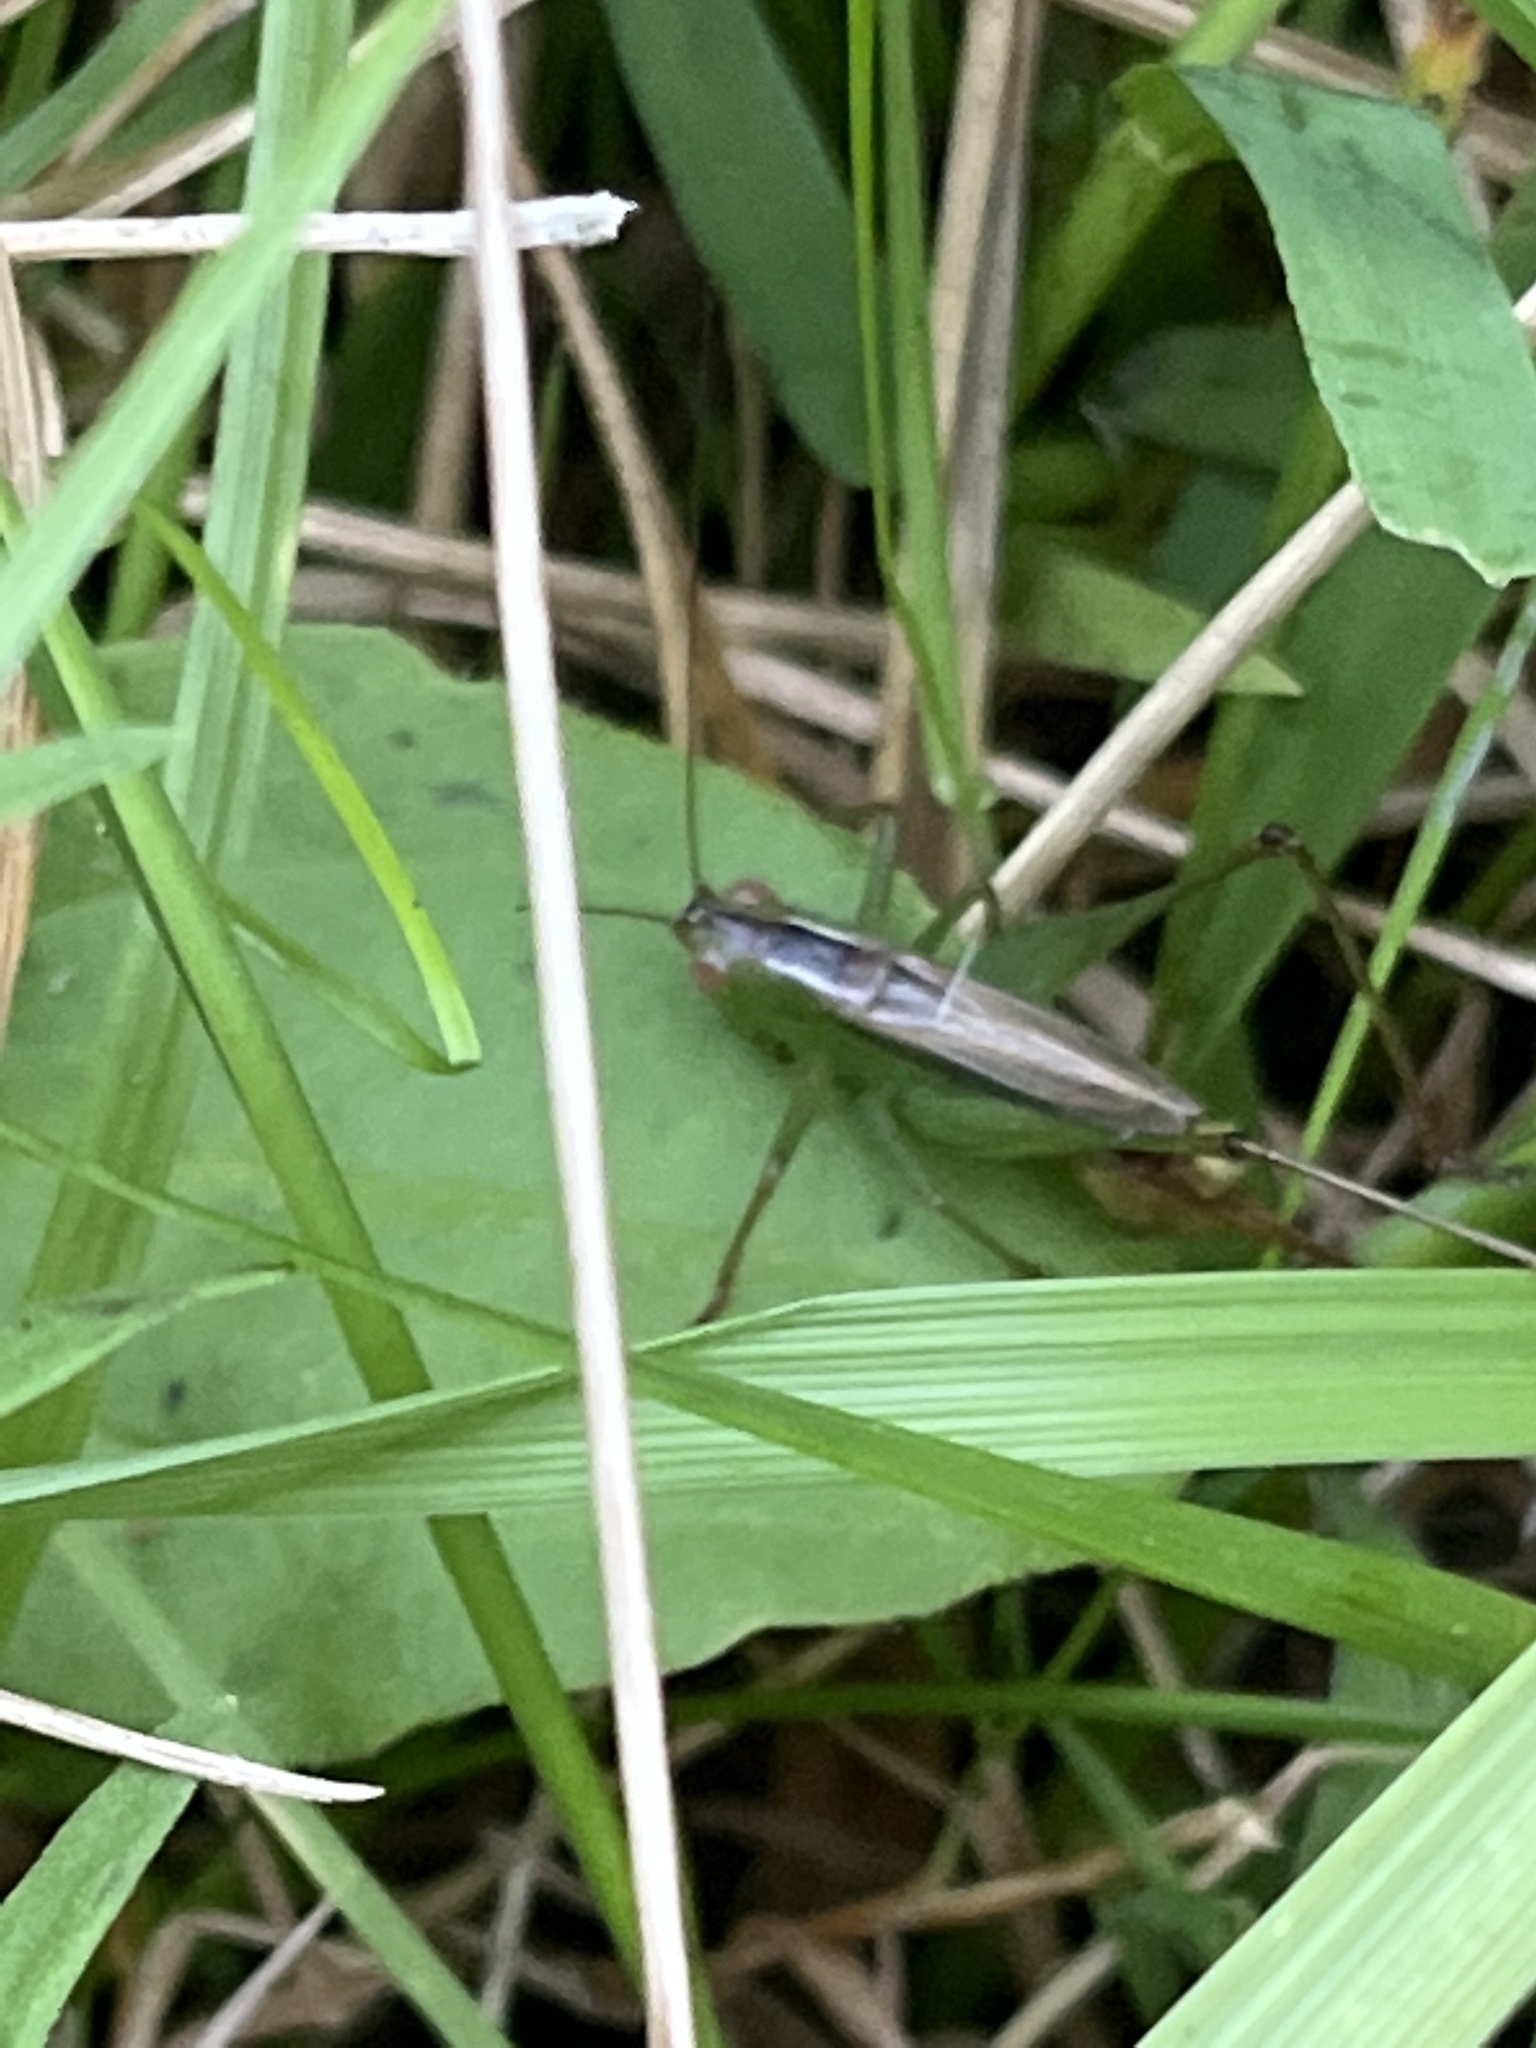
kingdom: Animalia
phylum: Arthropoda
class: Insecta
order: Orthoptera
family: Tettigoniidae
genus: Conocephalus
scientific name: Conocephalus brevipennis
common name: Short-winged meadow katydid
